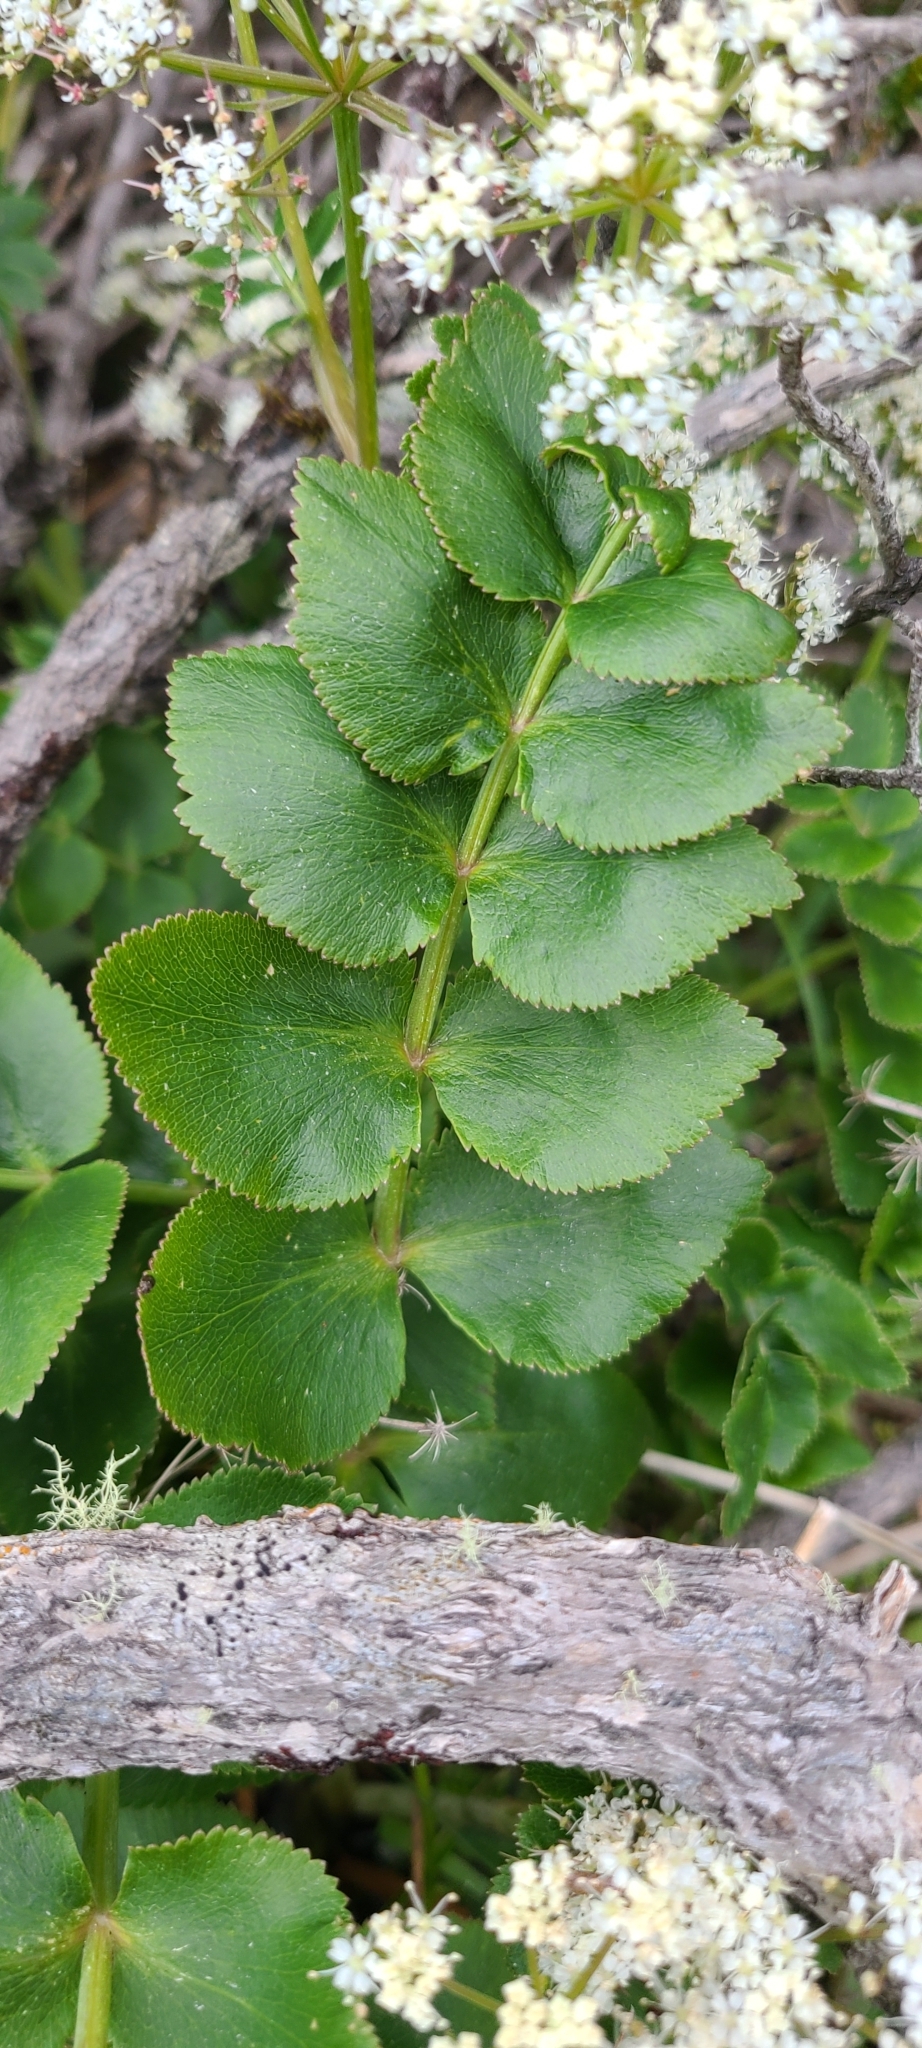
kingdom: Plantae
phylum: Tracheophyta
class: Magnoliopsida
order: Apiales
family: Apiaceae
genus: Gingidia
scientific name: Gingidia montana
